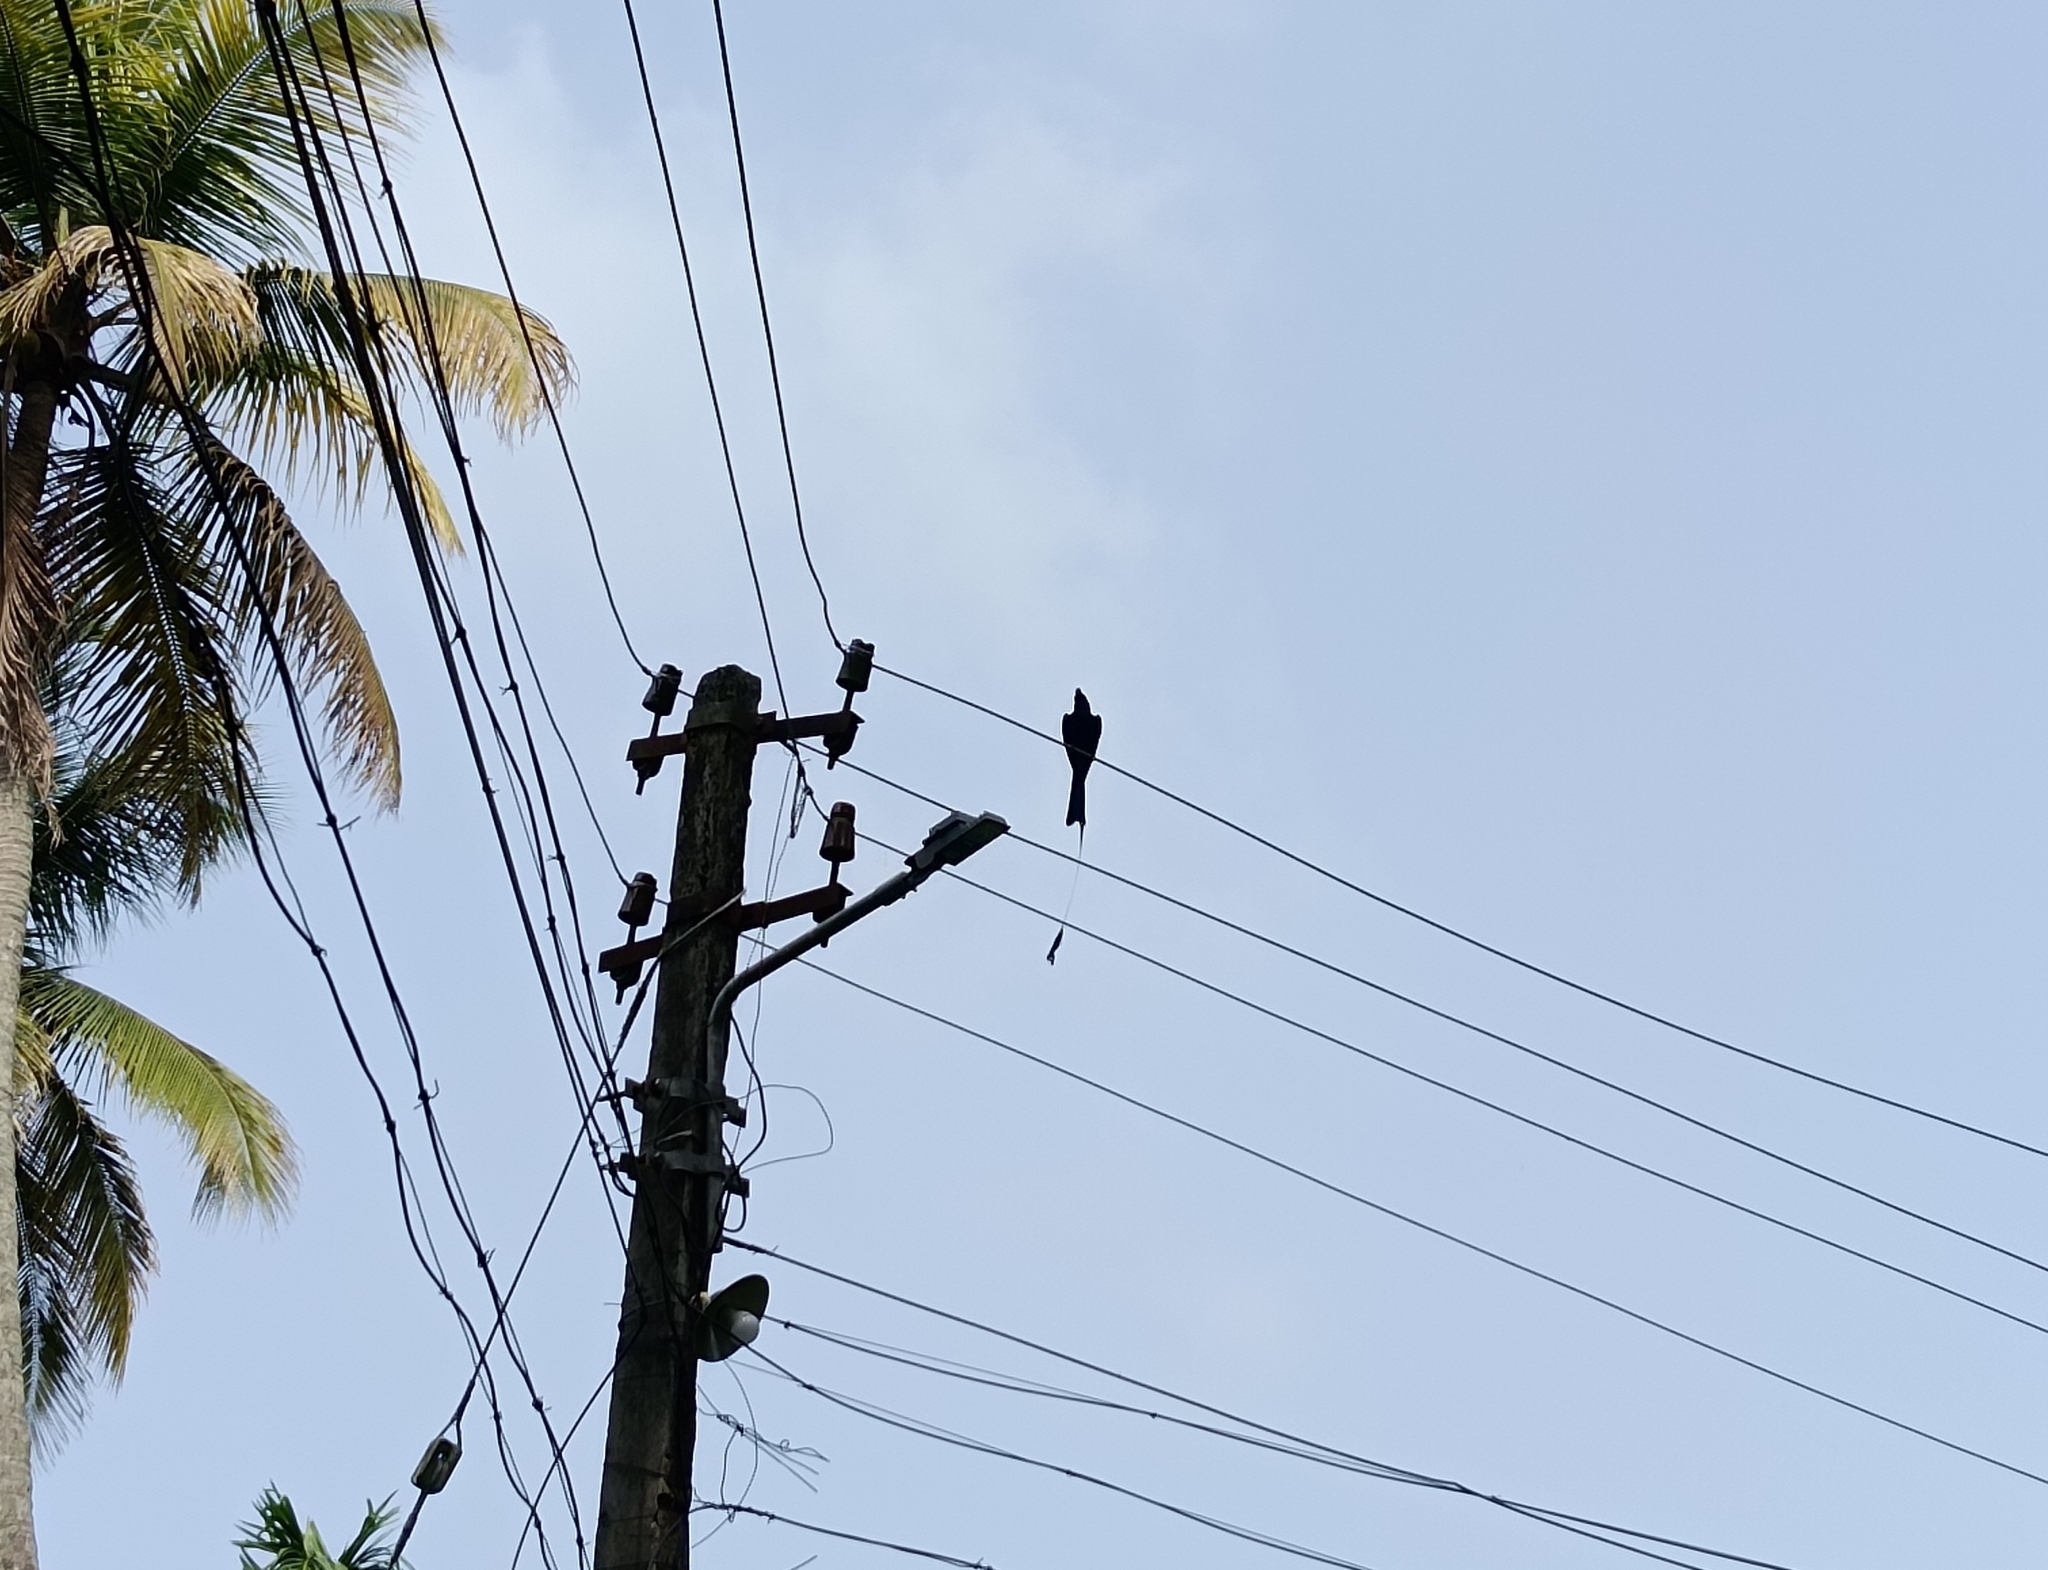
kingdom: Animalia
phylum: Chordata
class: Aves
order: Passeriformes
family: Dicruridae
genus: Dicrurus
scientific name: Dicrurus paradiseus
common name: Greater racket-tailed drongo
